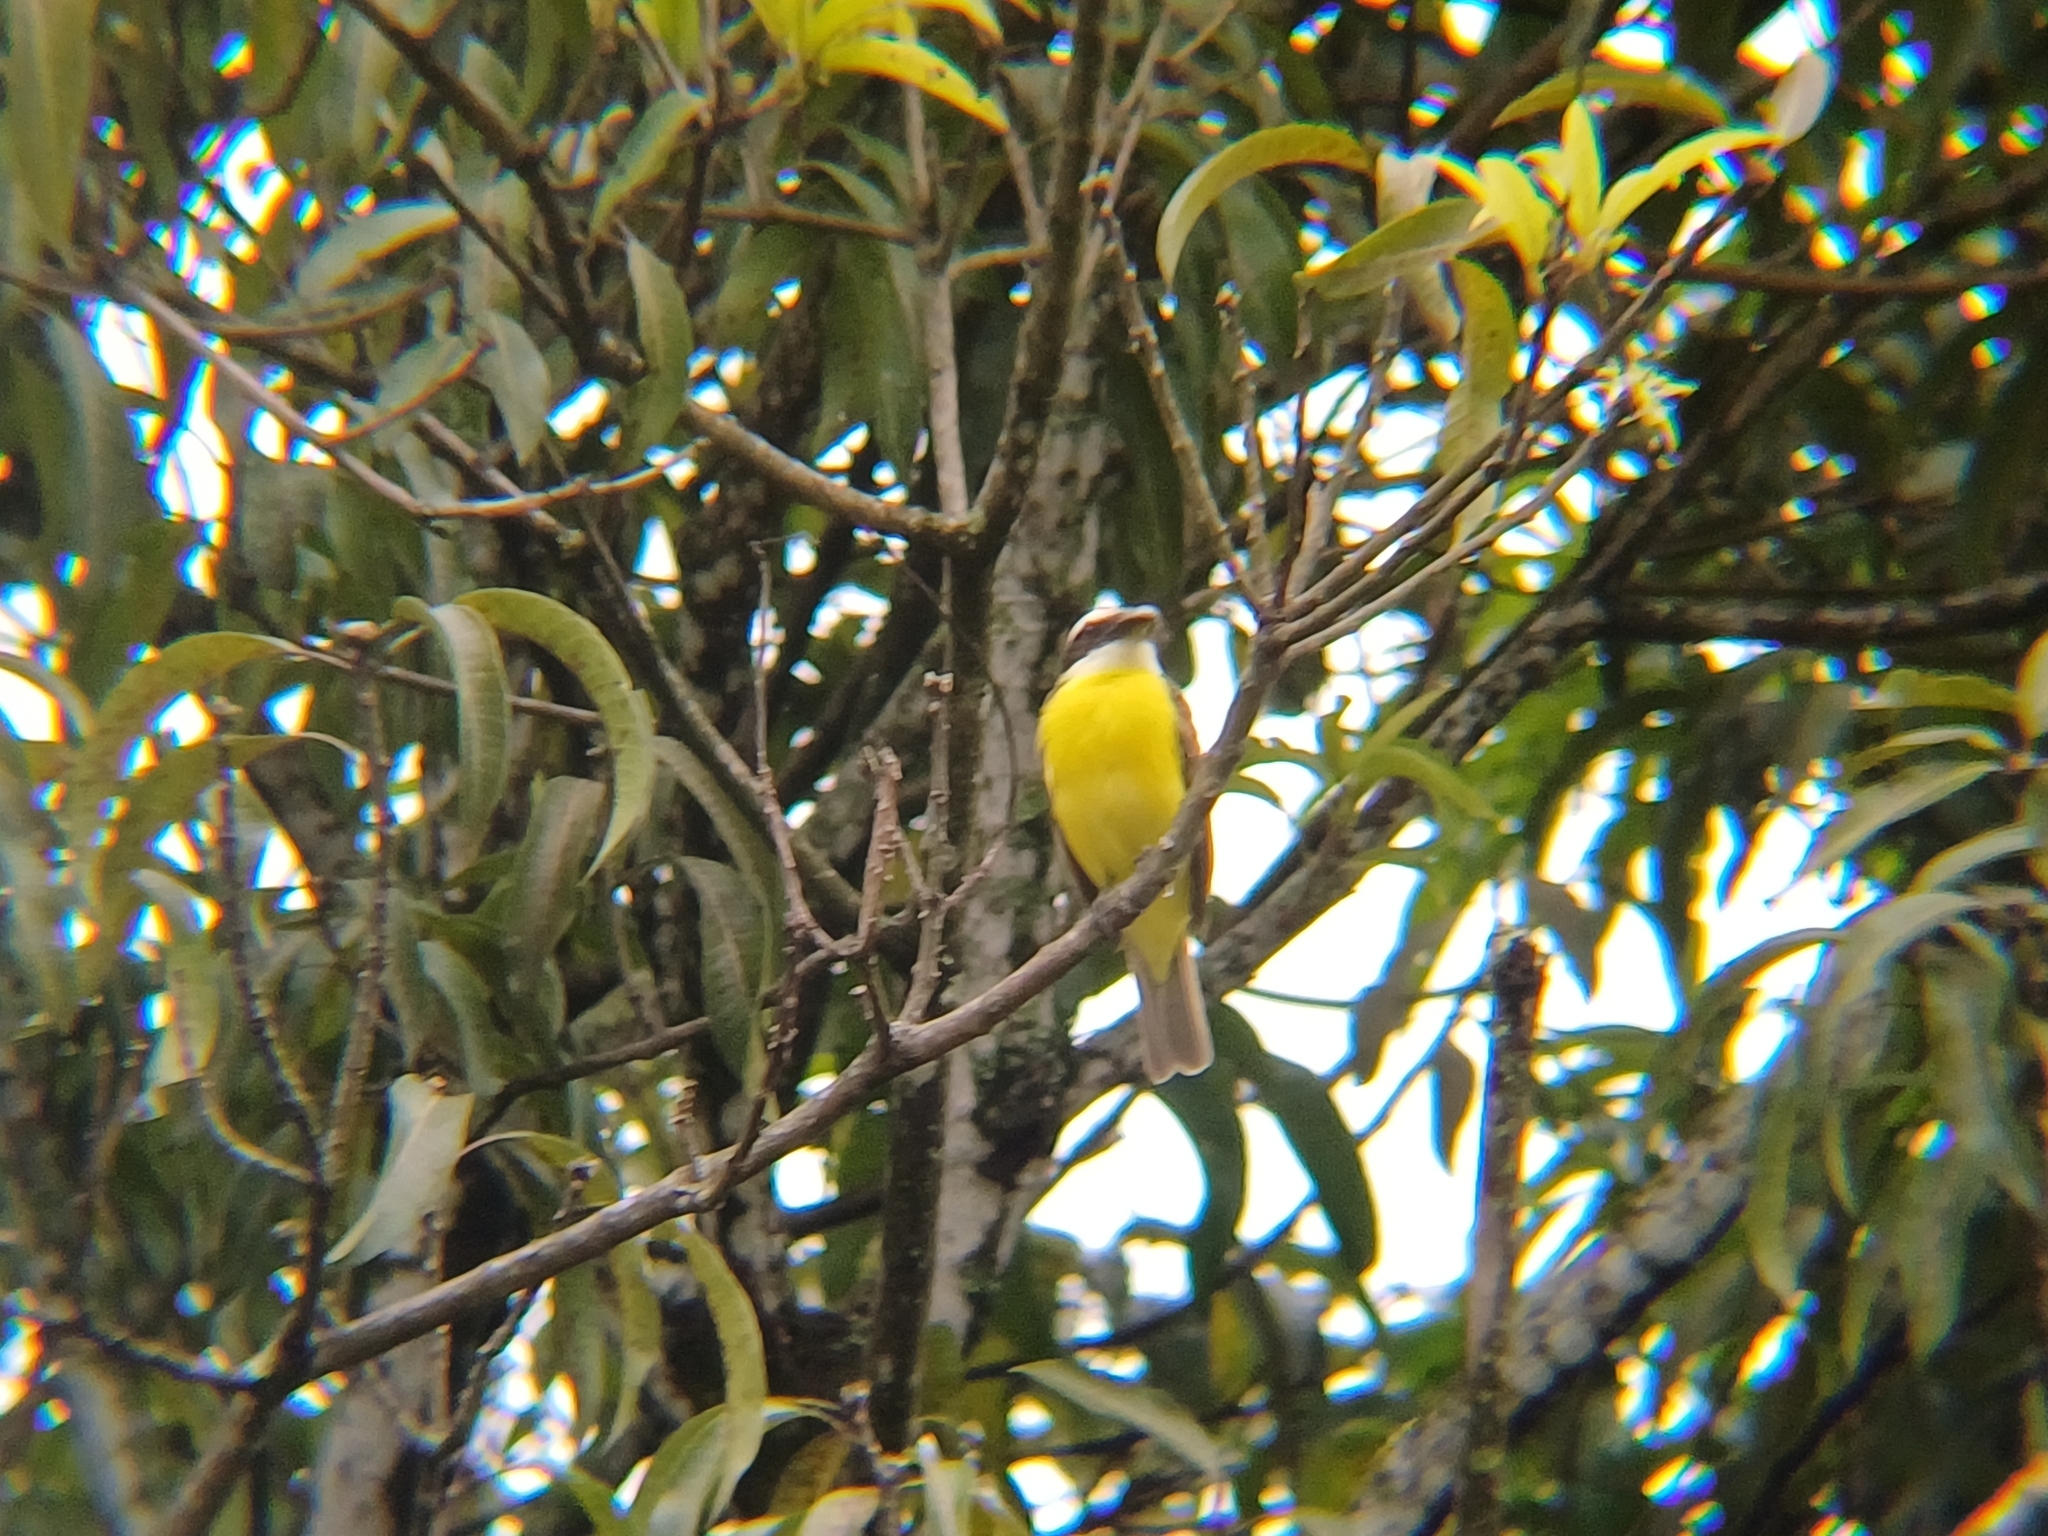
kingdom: Animalia
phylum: Chordata
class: Aves
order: Passeriformes
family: Tyrannidae
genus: Megarynchus
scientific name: Megarynchus pitangua
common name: Boat-billed flycatcher
